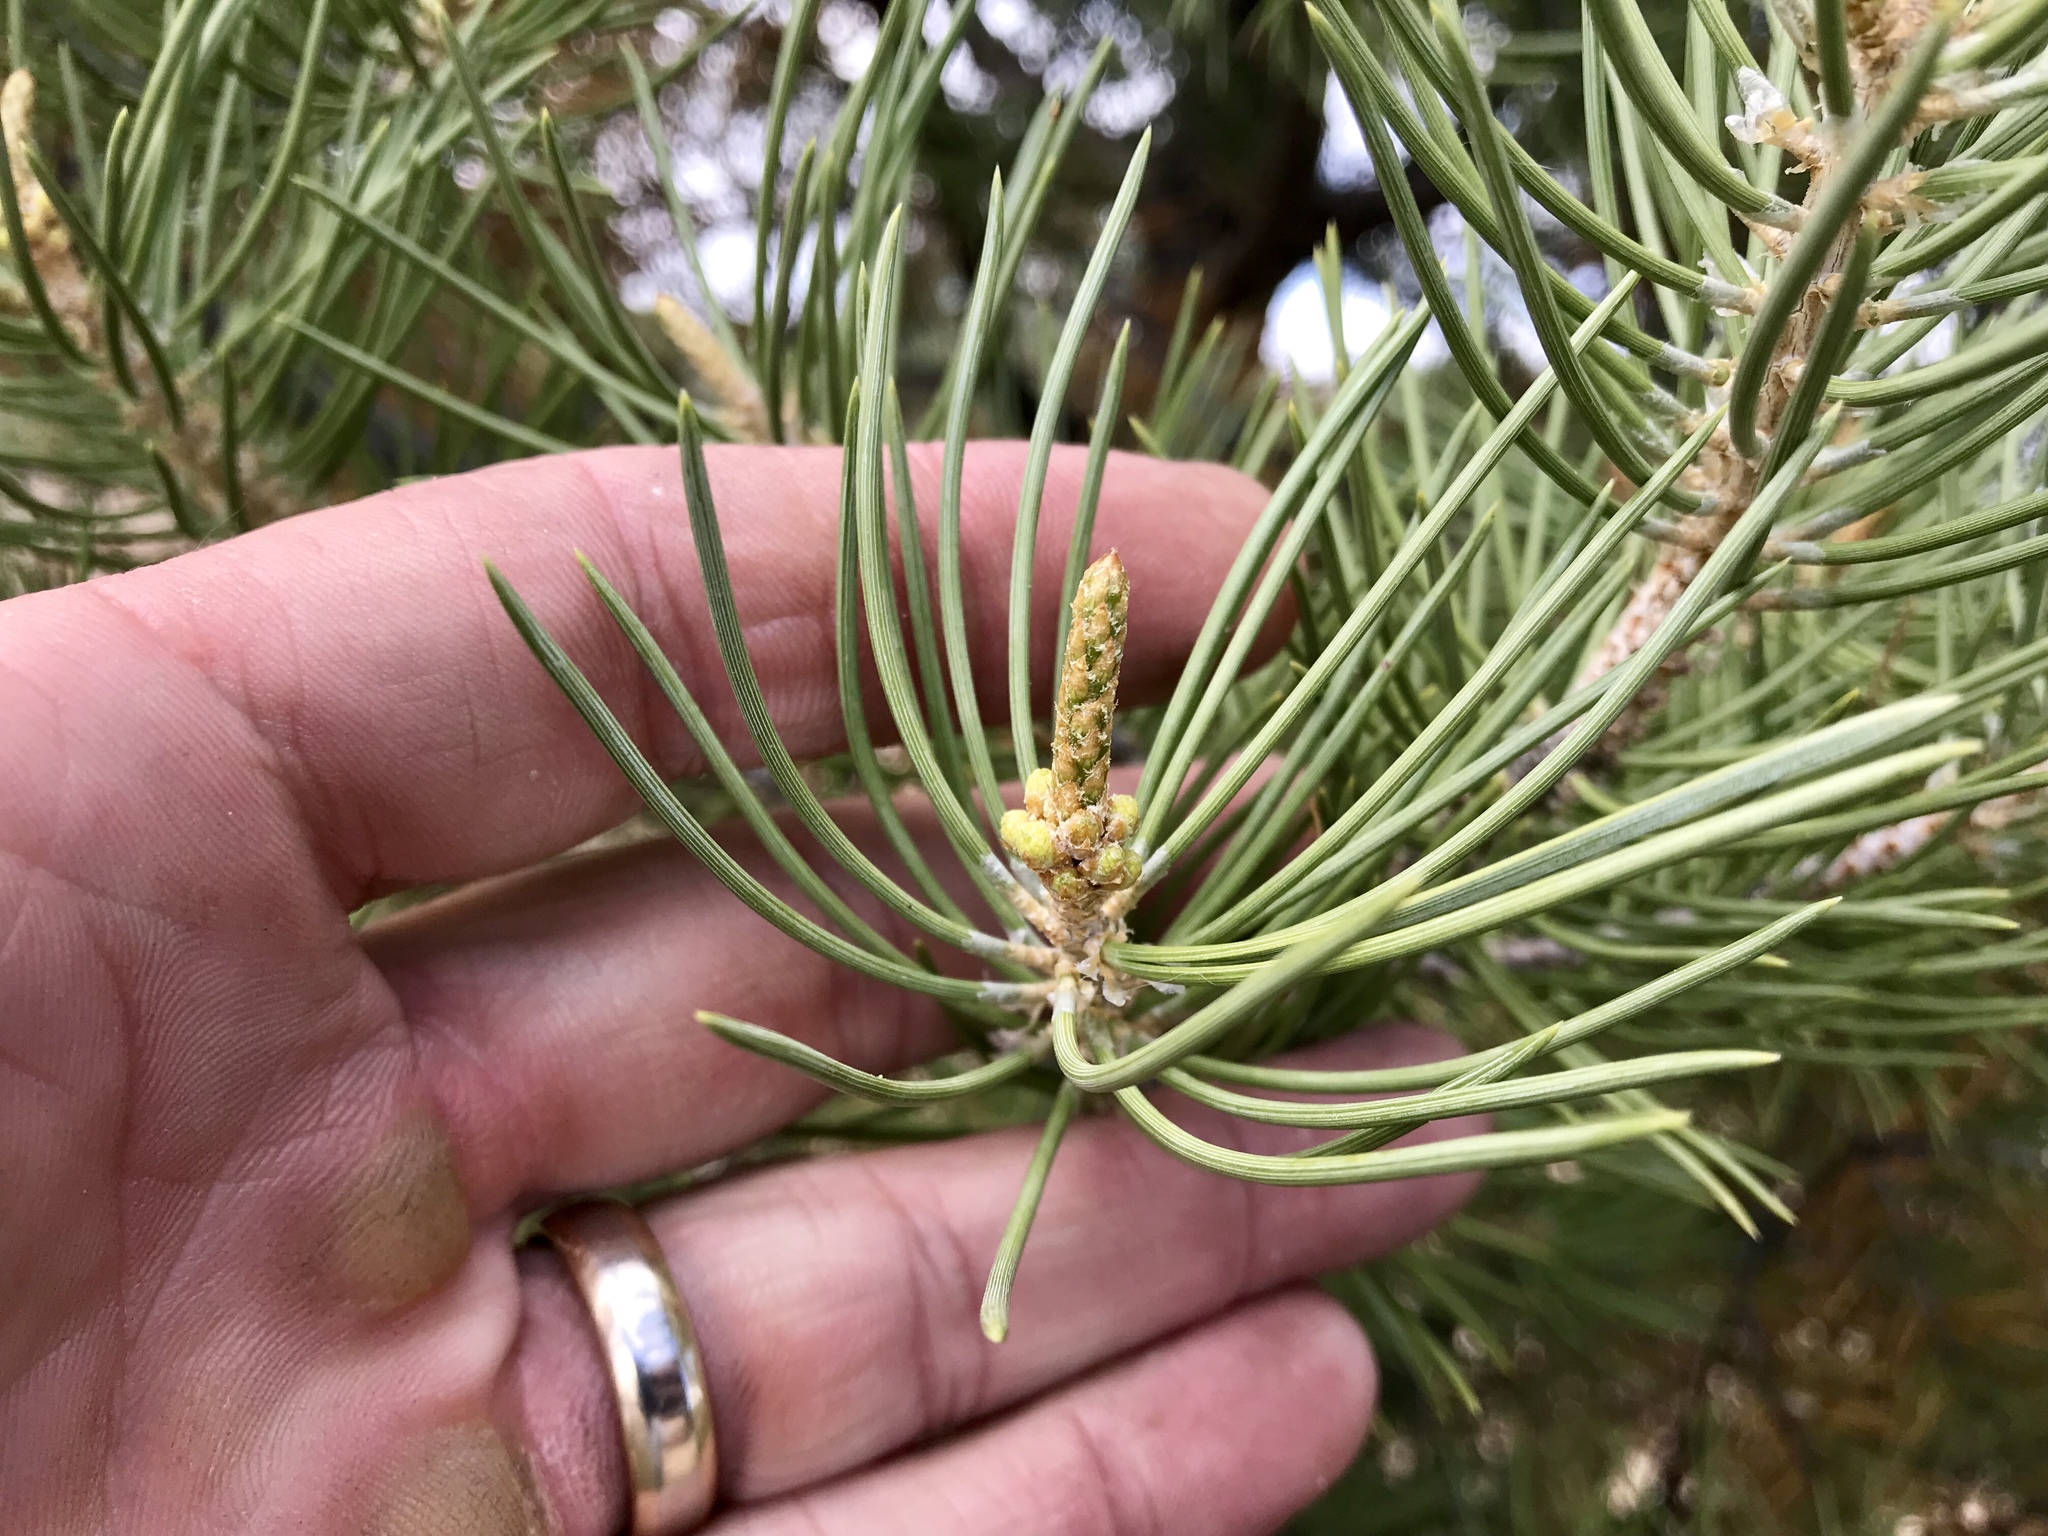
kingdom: Plantae
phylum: Tracheophyta
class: Pinopsida
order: Pinales
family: Pinaceae
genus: Pinus
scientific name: Pinus edulis
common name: Colorado pinyon
